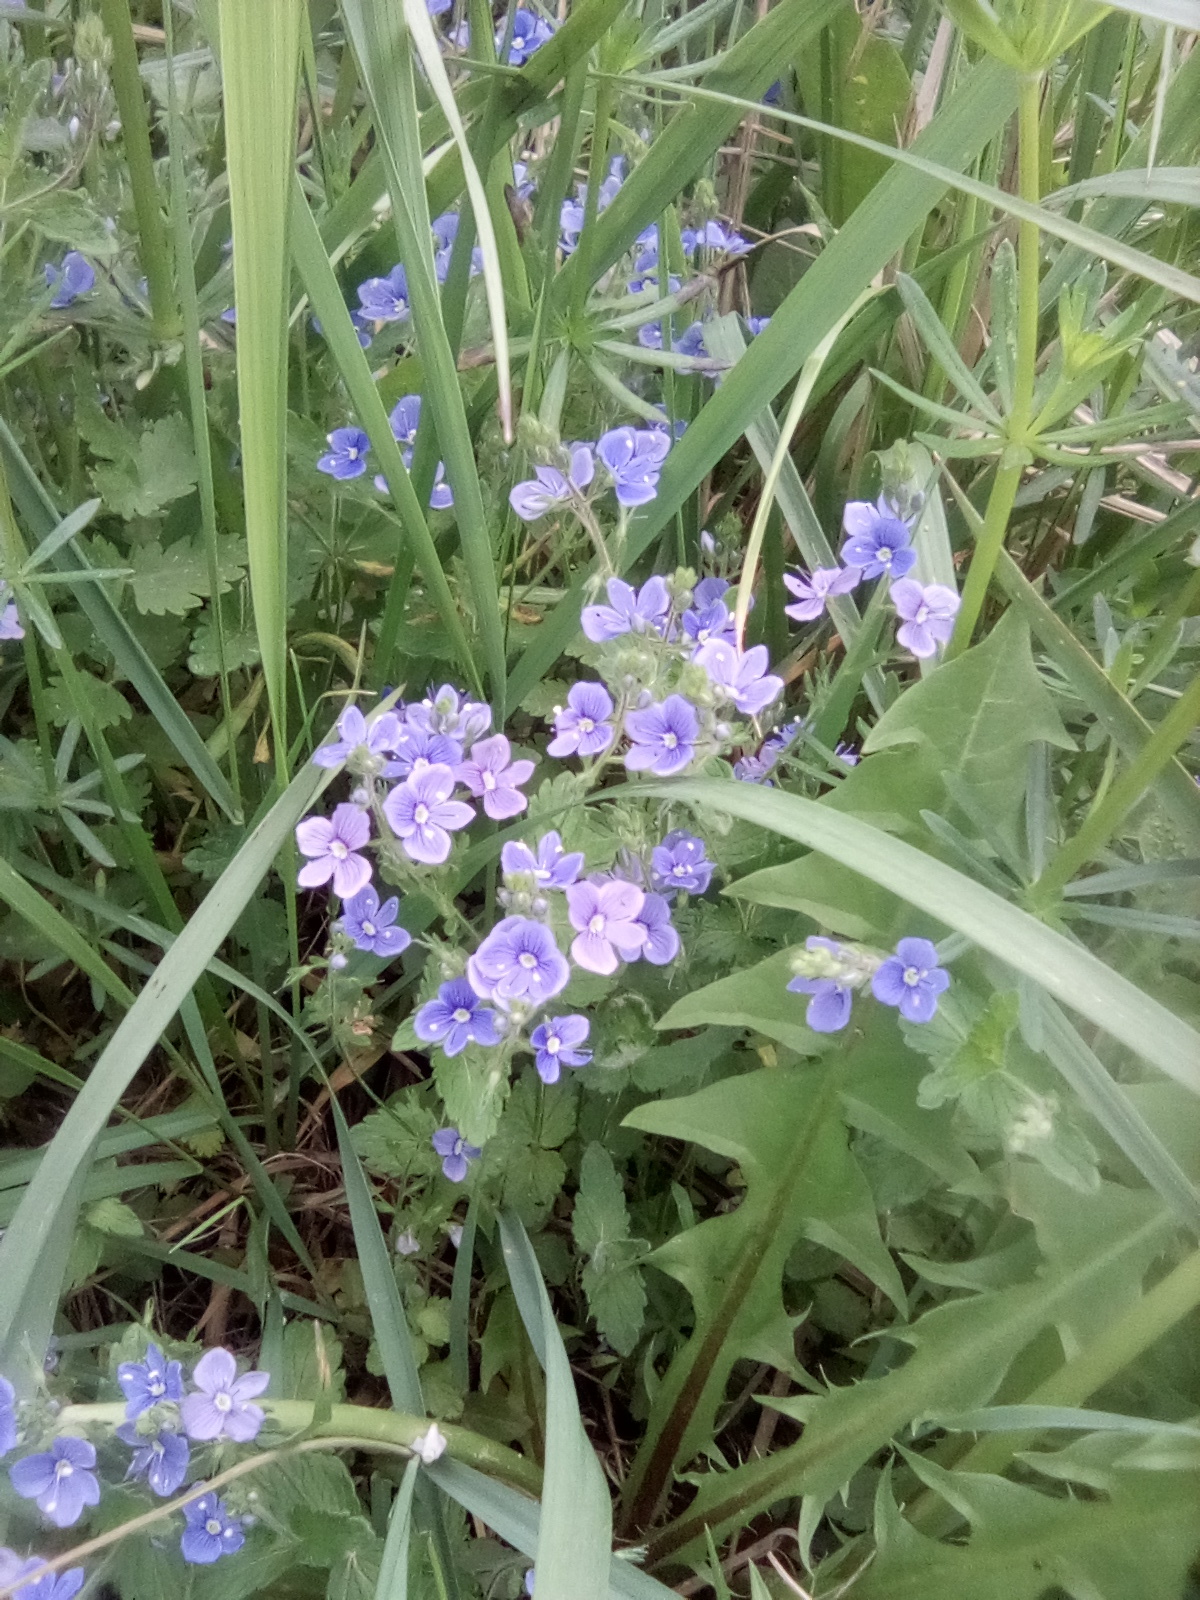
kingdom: Plantae
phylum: Tracheophyta
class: Magnoliopsida
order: Lamiales
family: Plantaginaceae
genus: Veronica
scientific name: Veronica chamaedrys
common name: Germander speedwell
